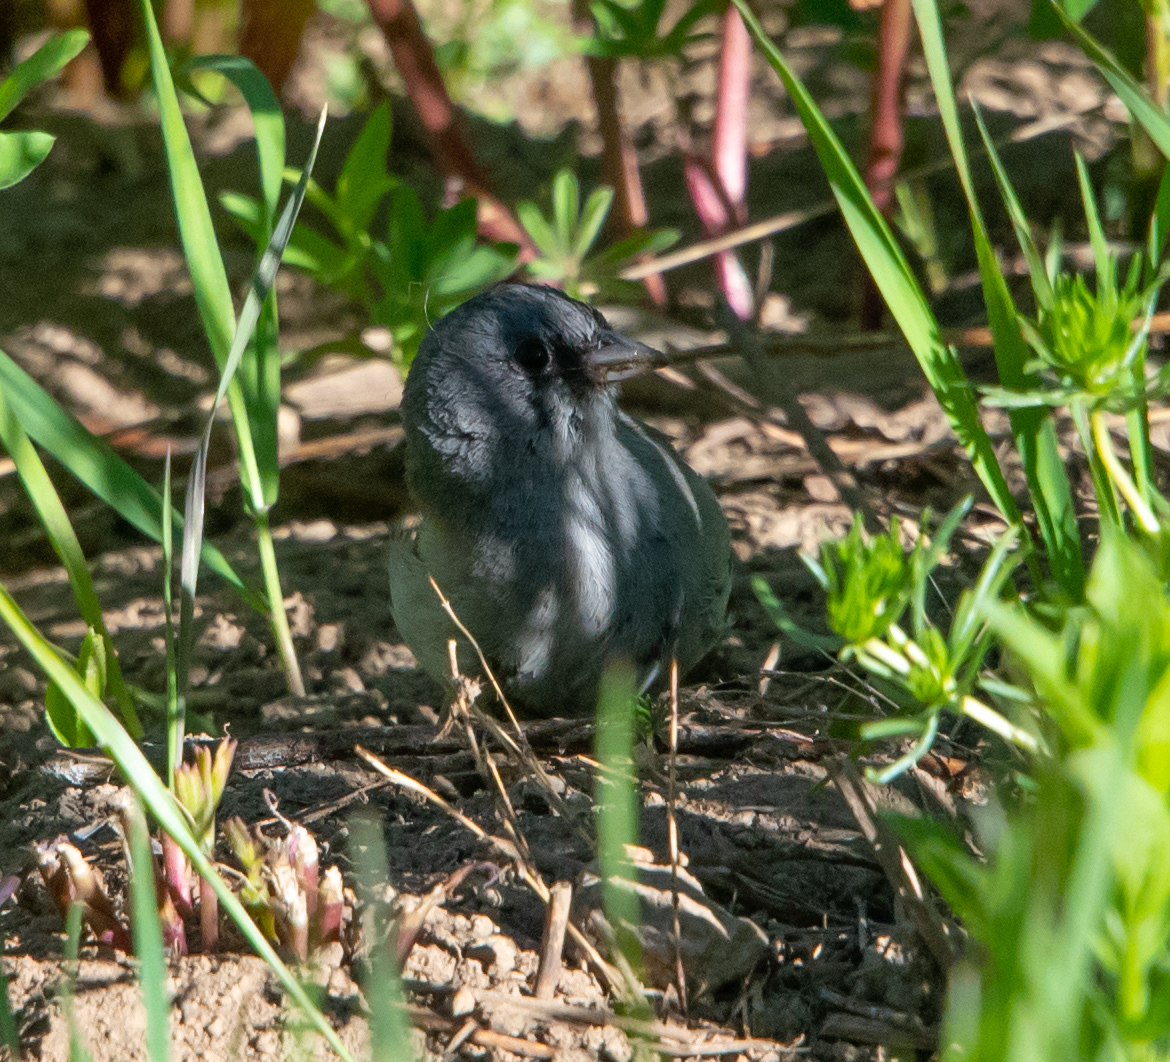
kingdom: Animalia
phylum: Chordata
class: Aves
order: Passeriformes
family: Passerellidae
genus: Junco
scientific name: Junco hyemalis
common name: Dark-eyed junco
